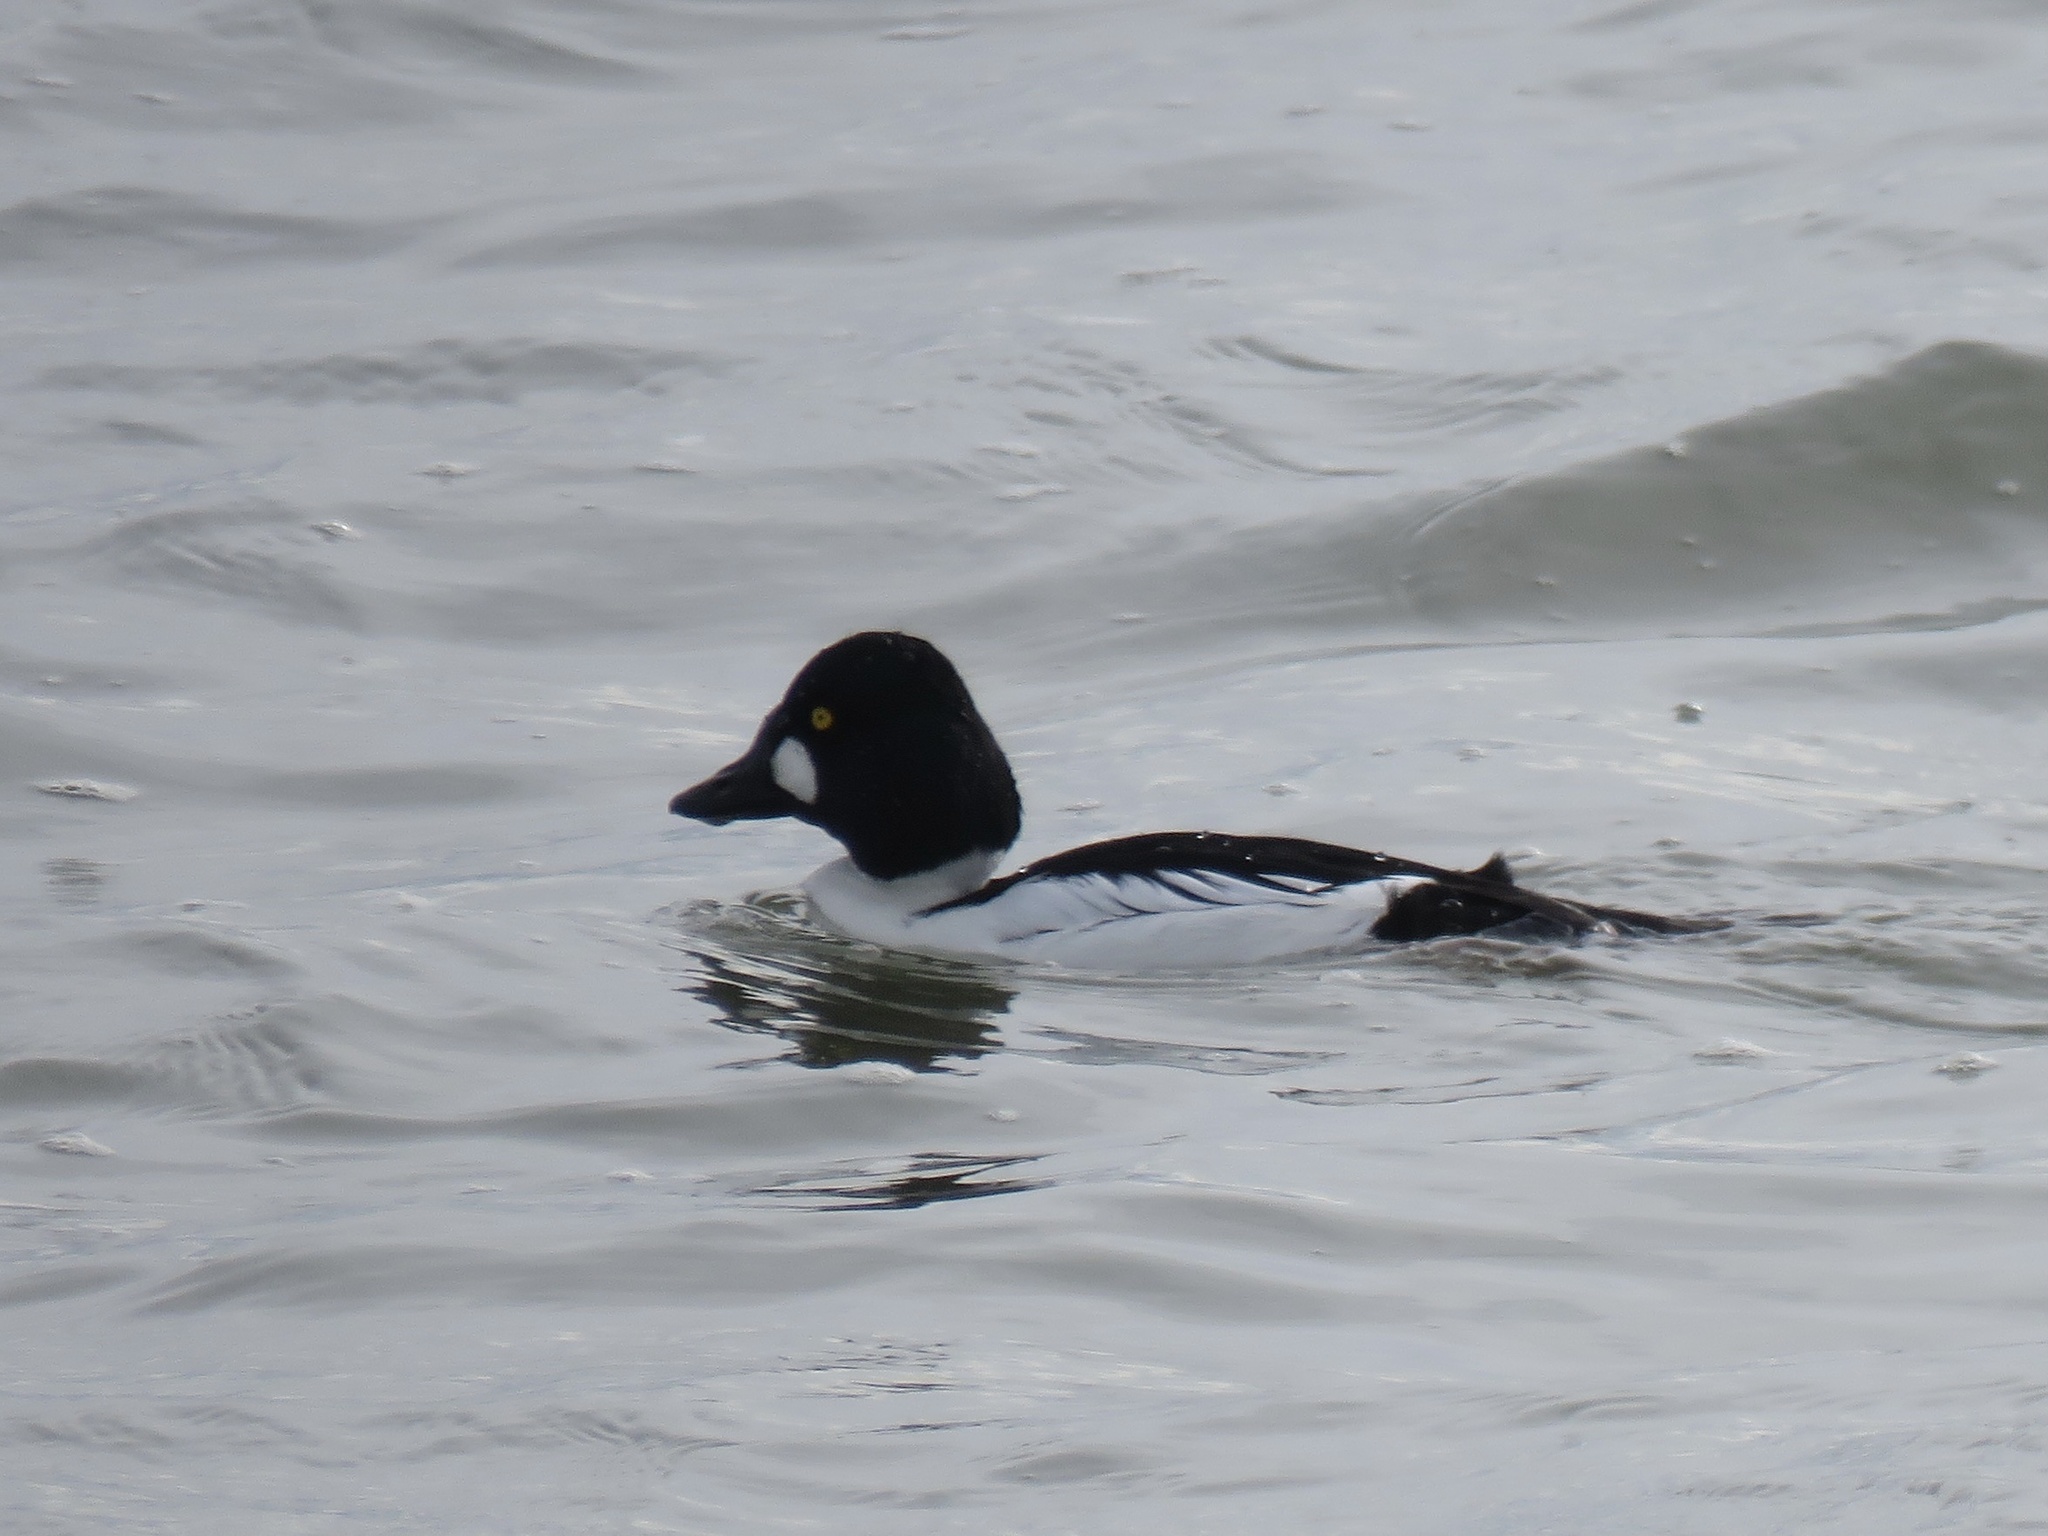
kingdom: Animalia
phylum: Chordata
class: Aves
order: Anseriformes
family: Anatidae
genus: Bucephala
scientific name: Bucephala clangula
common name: Common goldeneye
